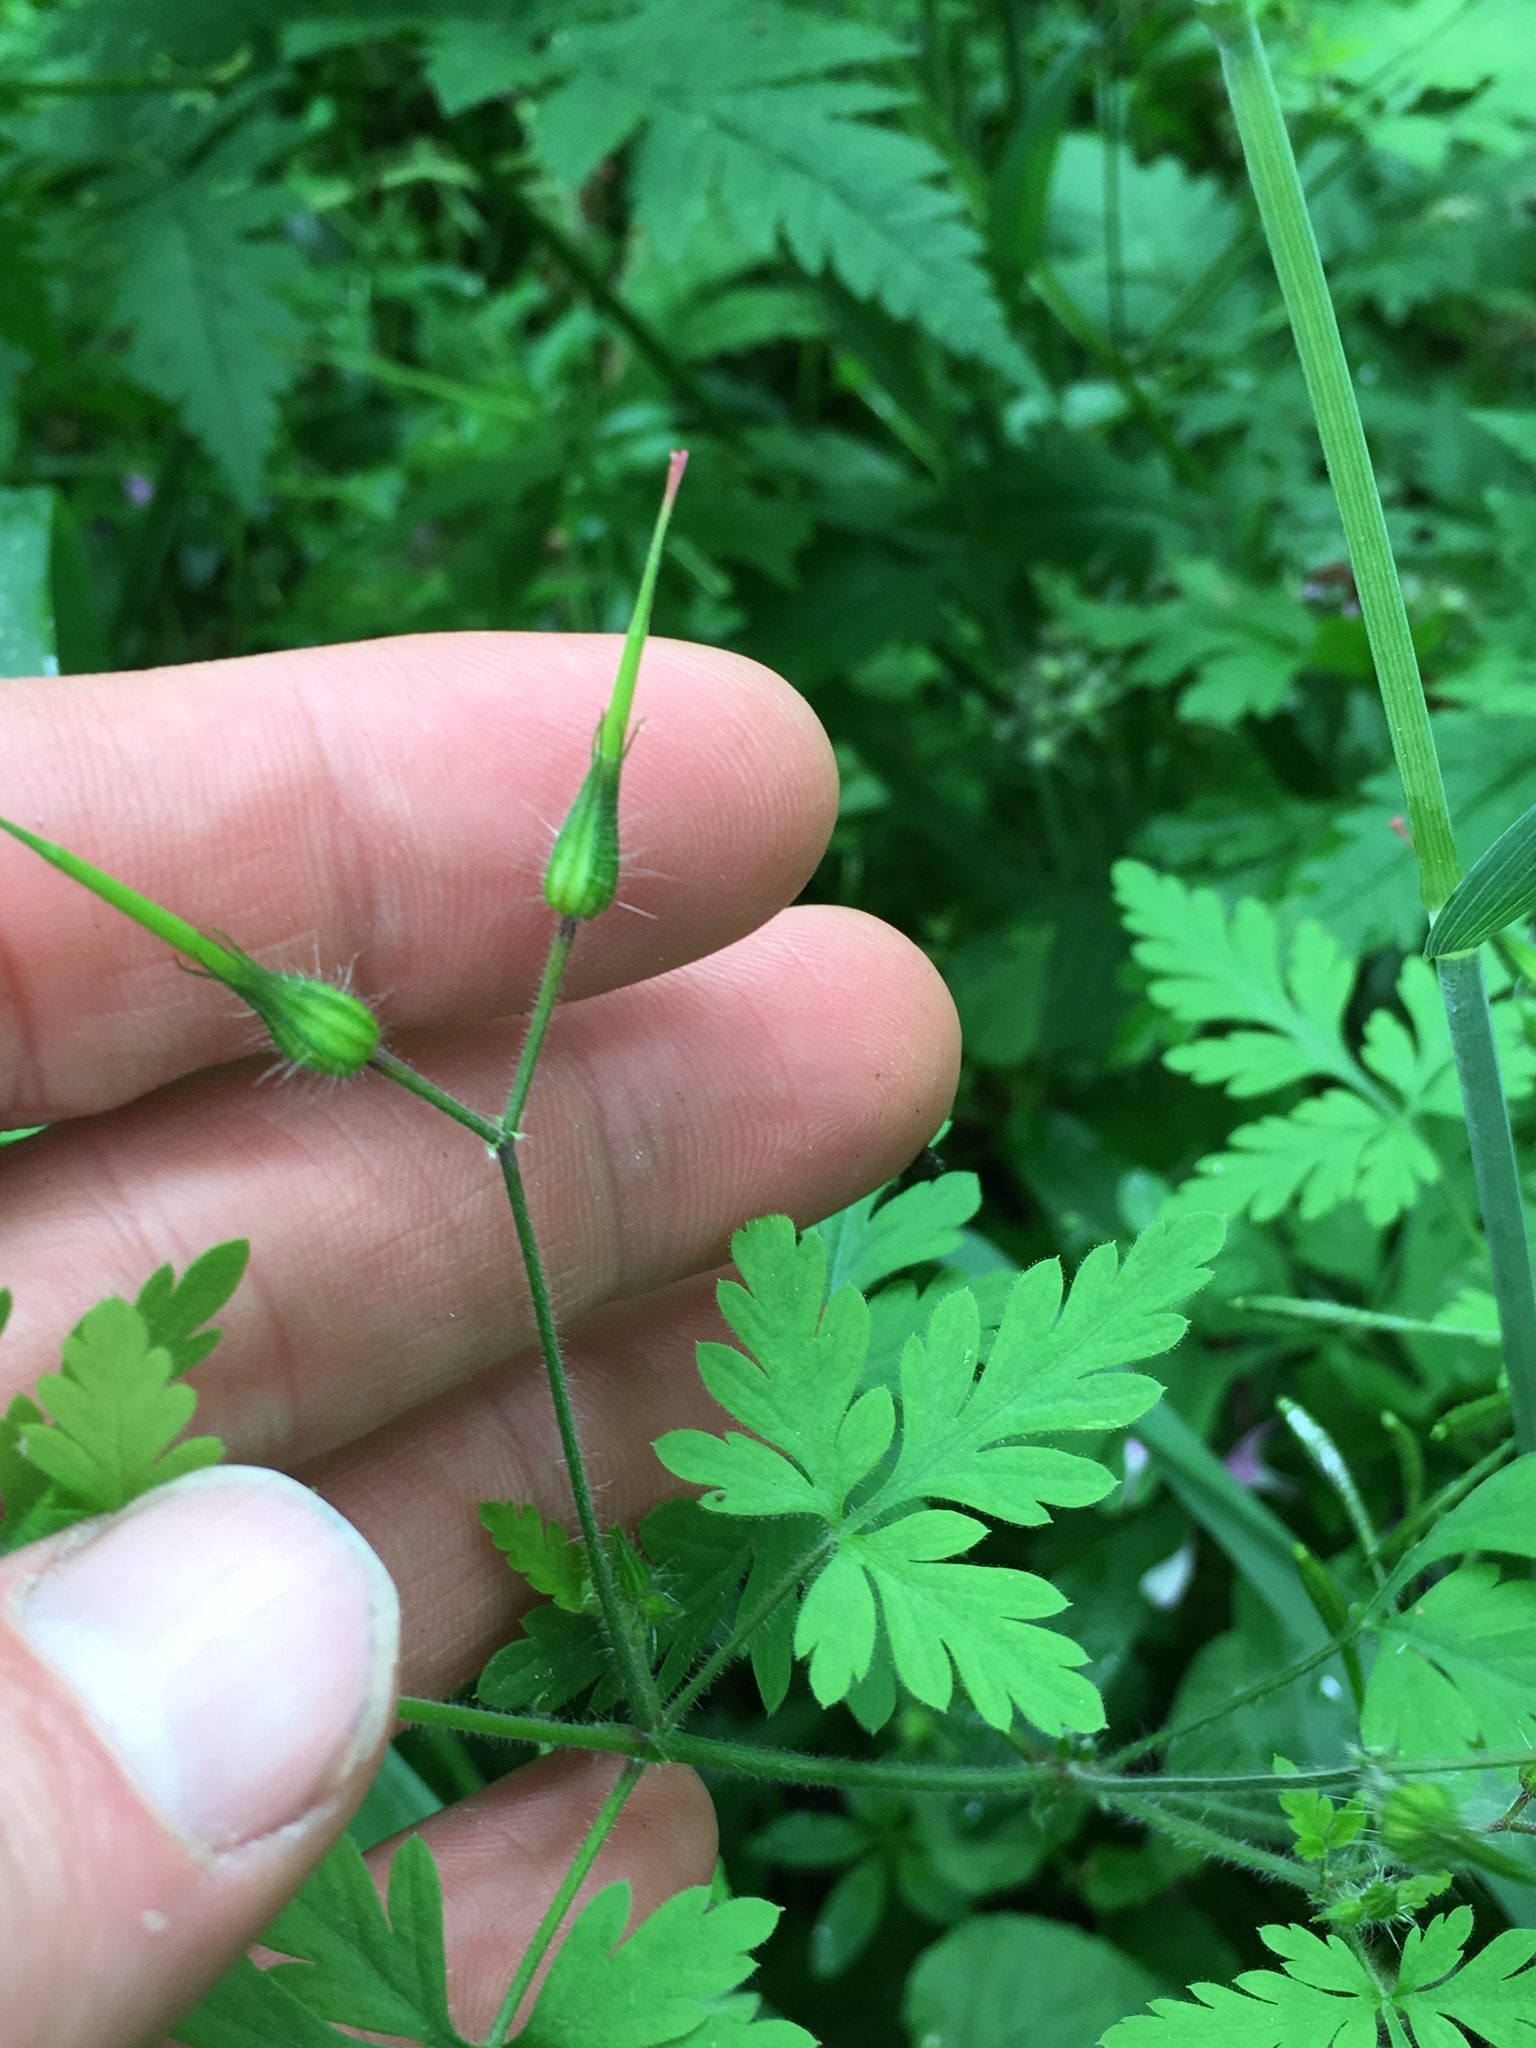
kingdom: Plantae
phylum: Tracheophyta
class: Magnoliopsida
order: Geraniales
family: Geraniaceae
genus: Geranium
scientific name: Geranium robertianum
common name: Herb-robert
